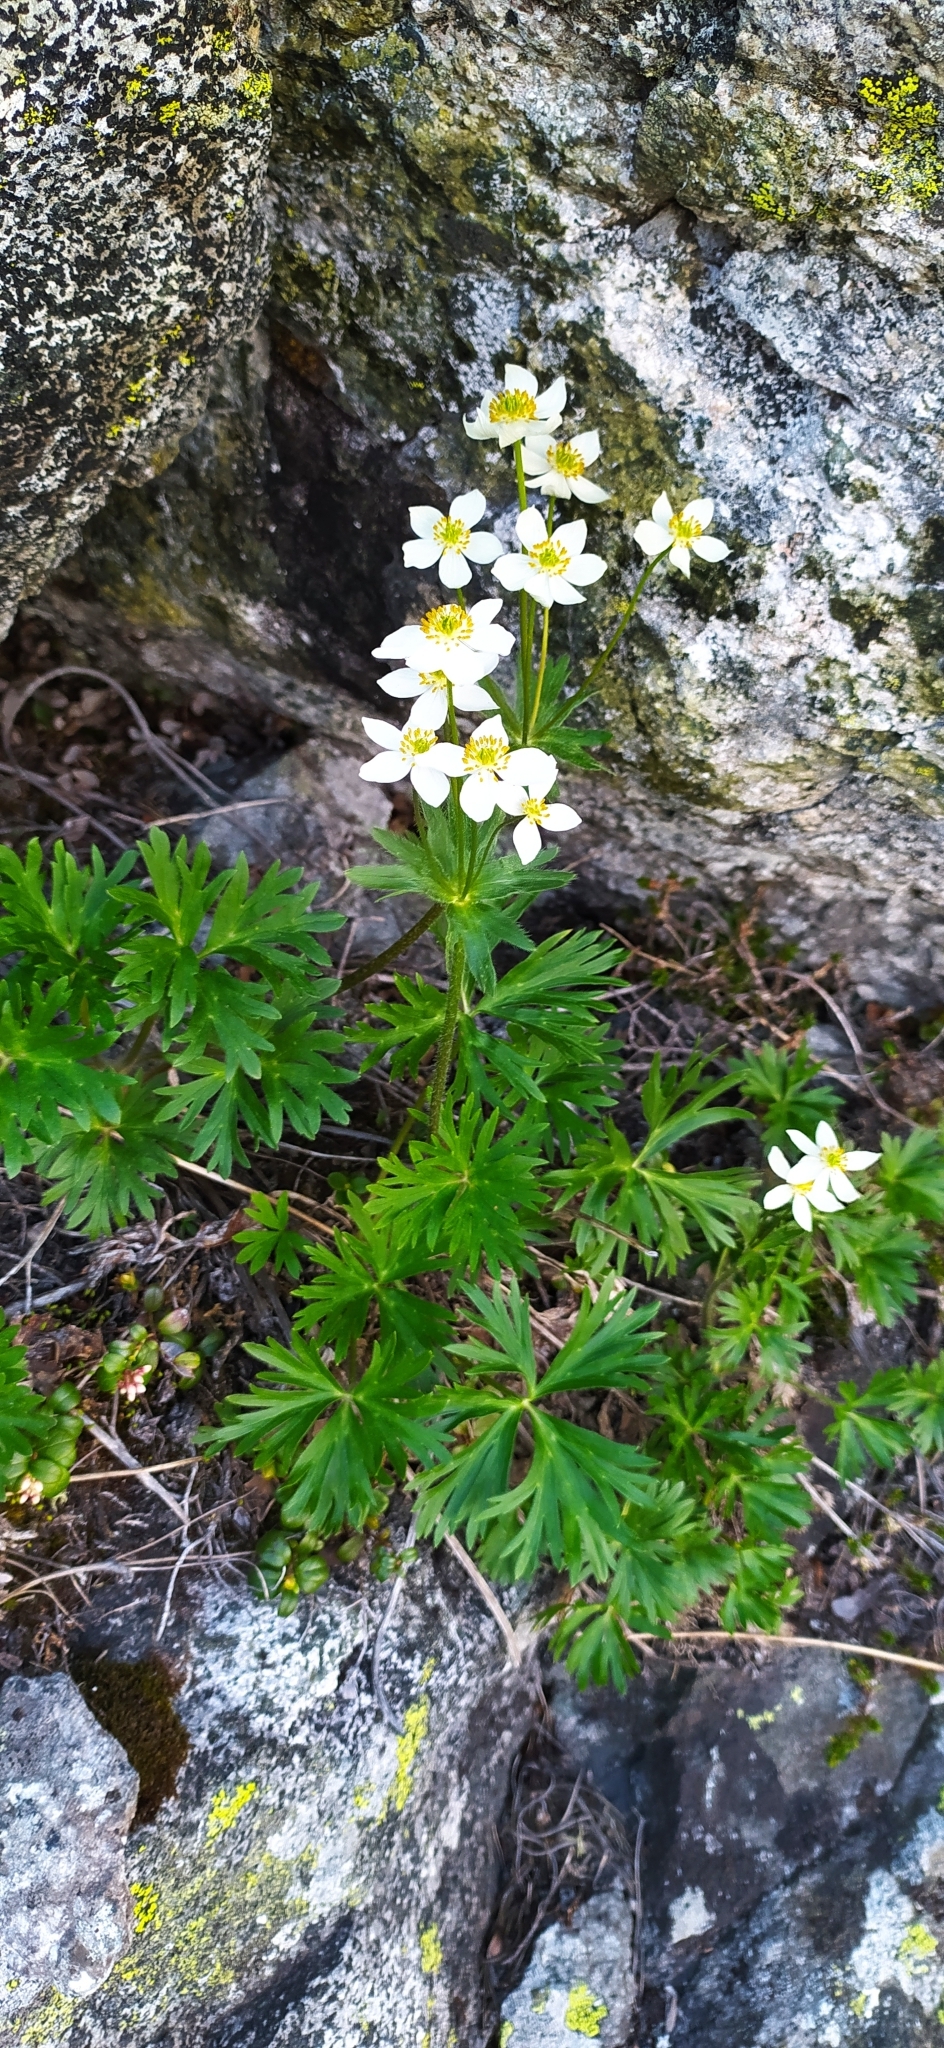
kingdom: Plantae
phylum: Tracheophyta
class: Magnoliopsida
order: Ranunculales
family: Ranunculaceae
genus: Anemonastrum
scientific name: Anemonastrum biarmiense
